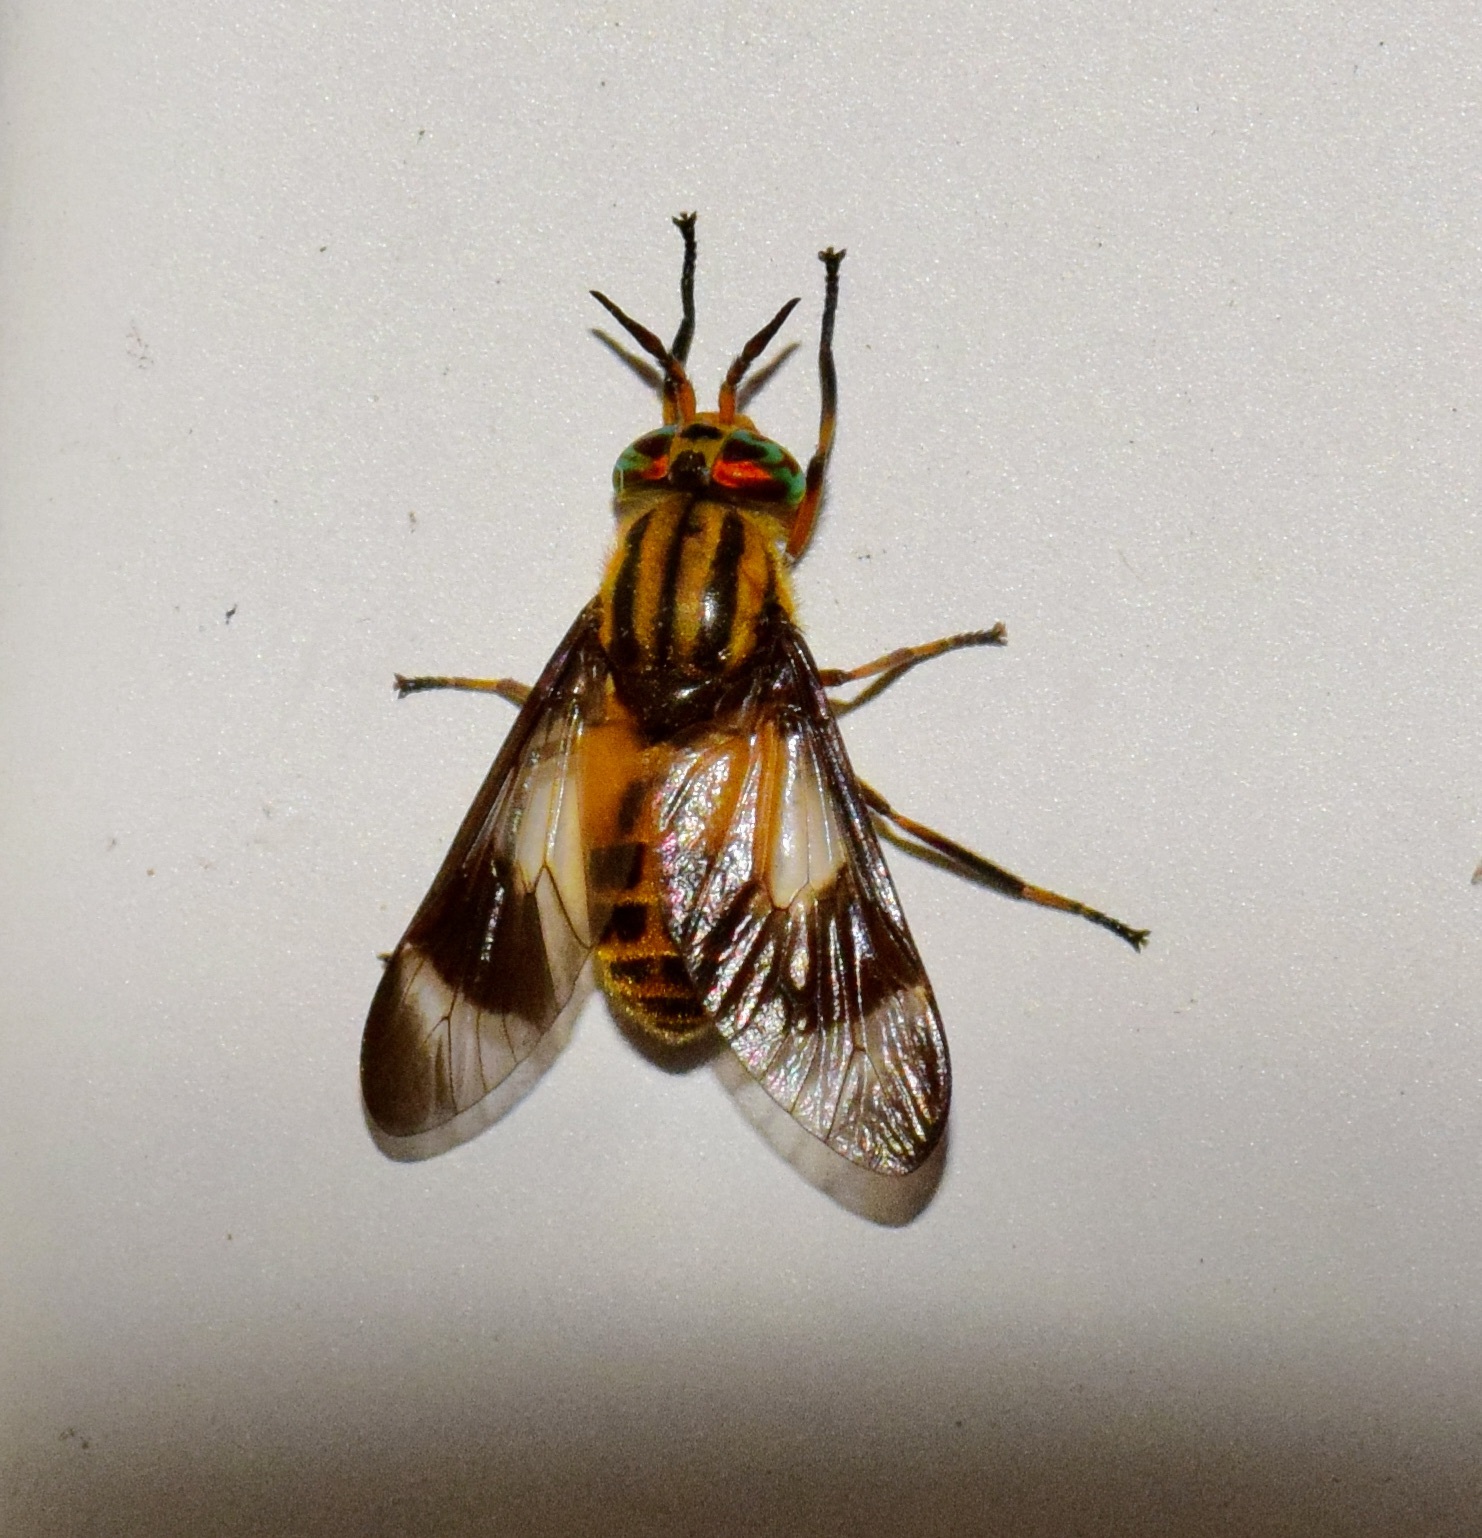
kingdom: Animalia
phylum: Arthropoda
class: Insecta
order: Diptera
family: Tabanidae
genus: Chrysops
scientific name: Chrysops geminatus
